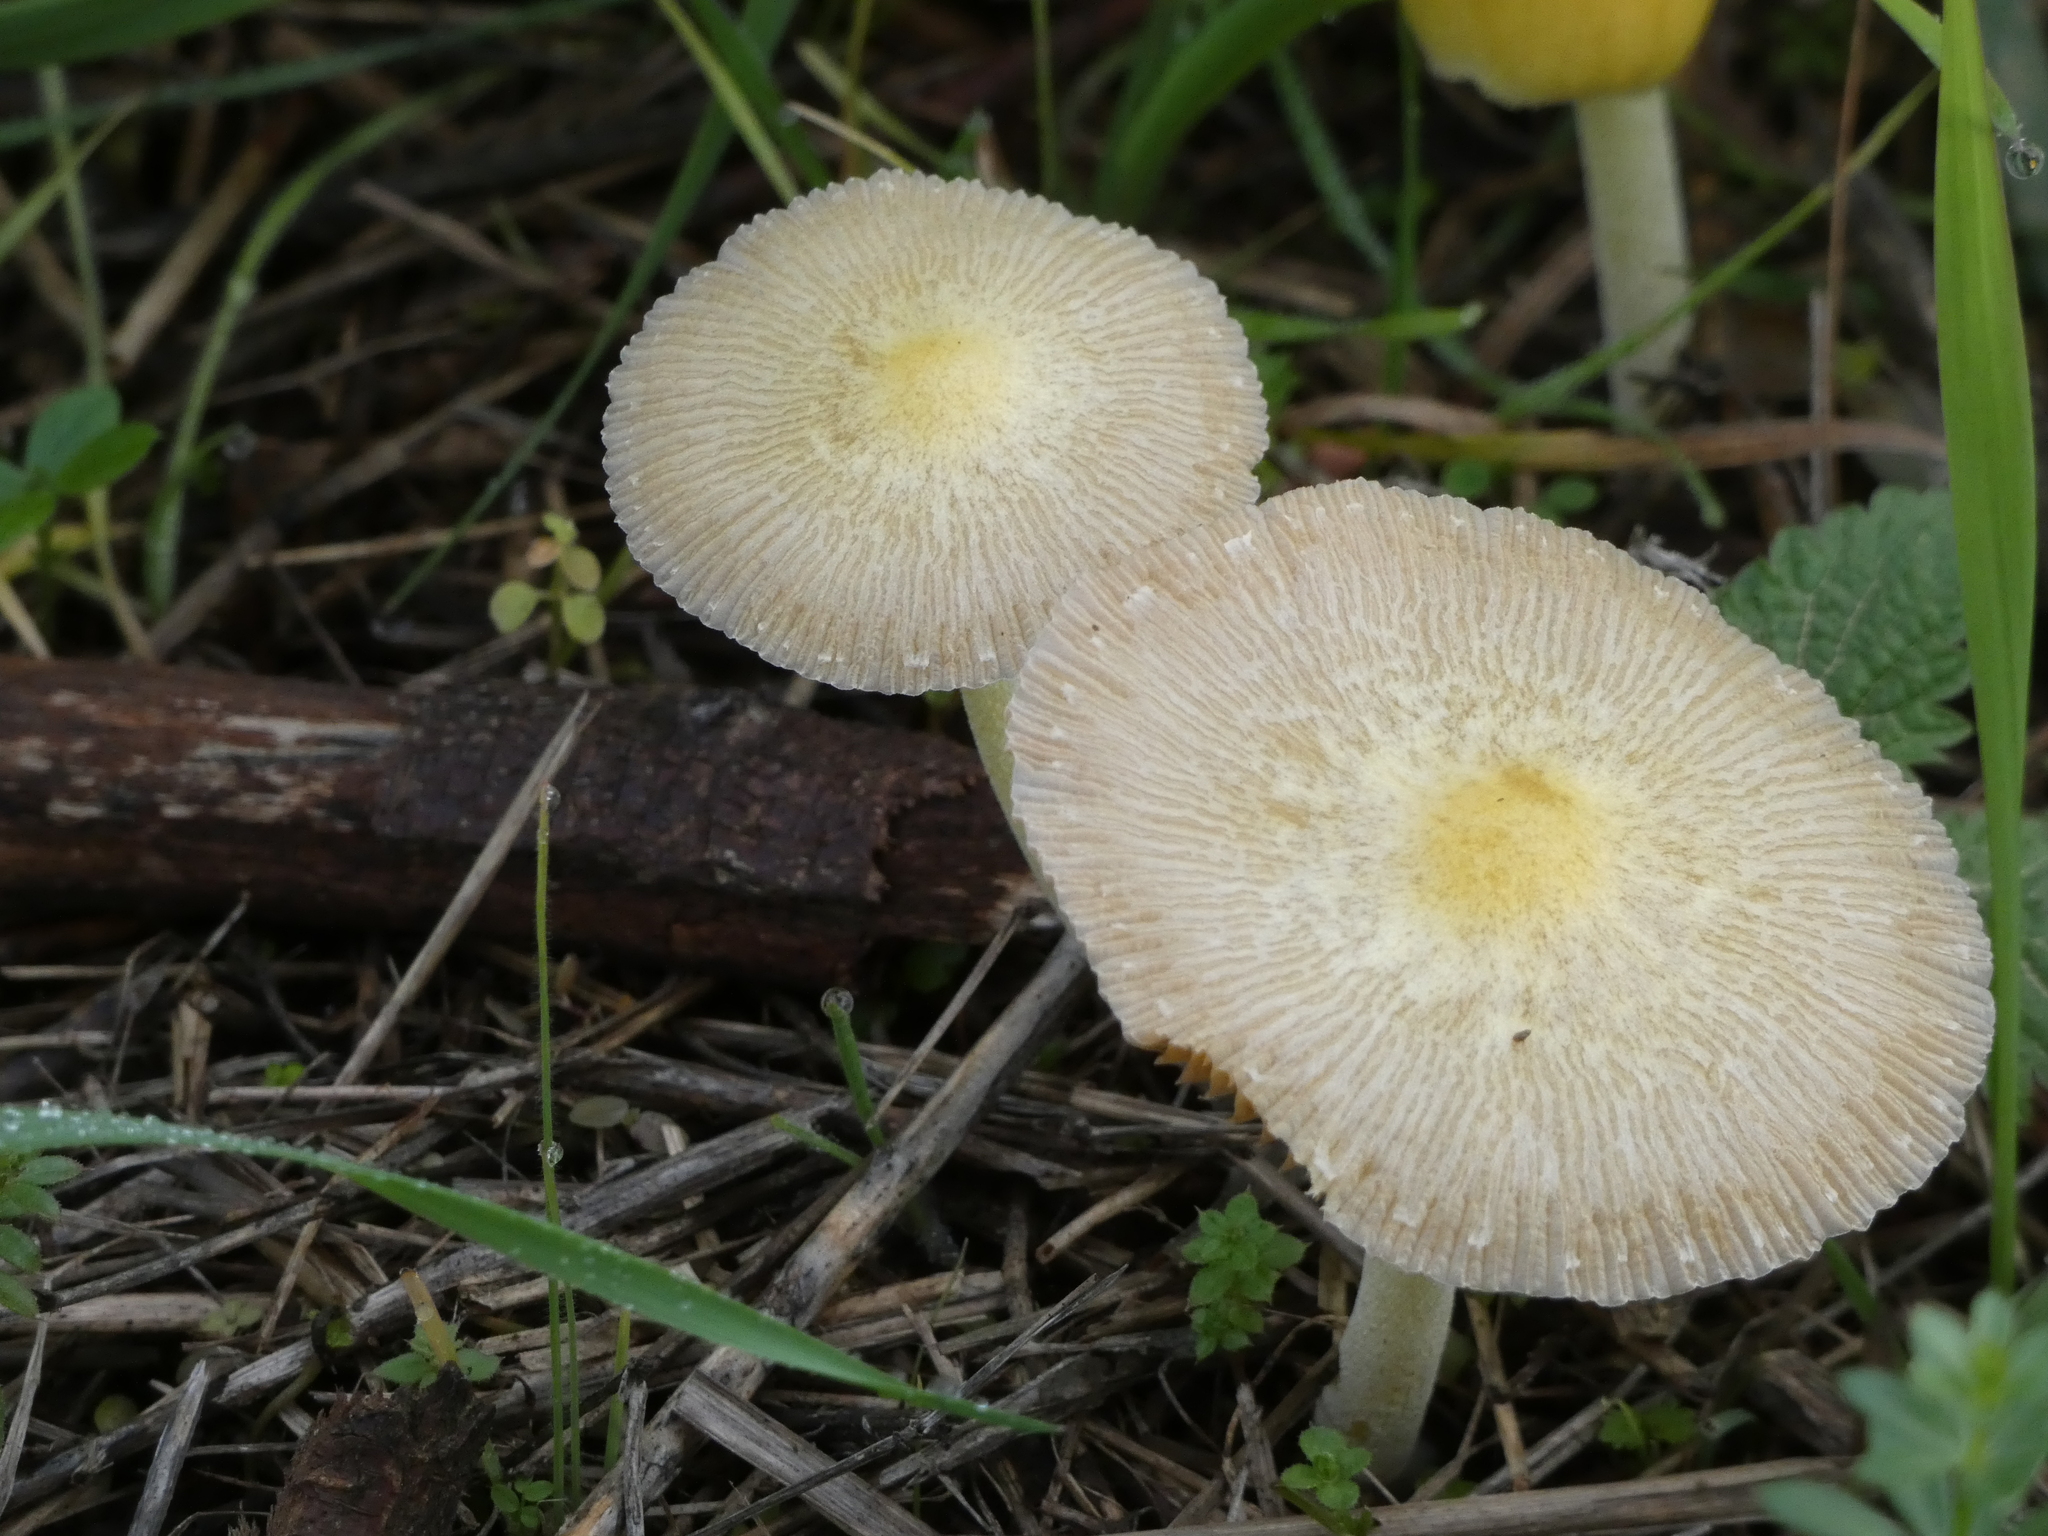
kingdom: Fungi
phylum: Basidiomycota
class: Agaricomycetes
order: Agaricales
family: Bolbitiaceae
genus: Bolbitius
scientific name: Bolbitius titubans
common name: Yellow fieldcap
